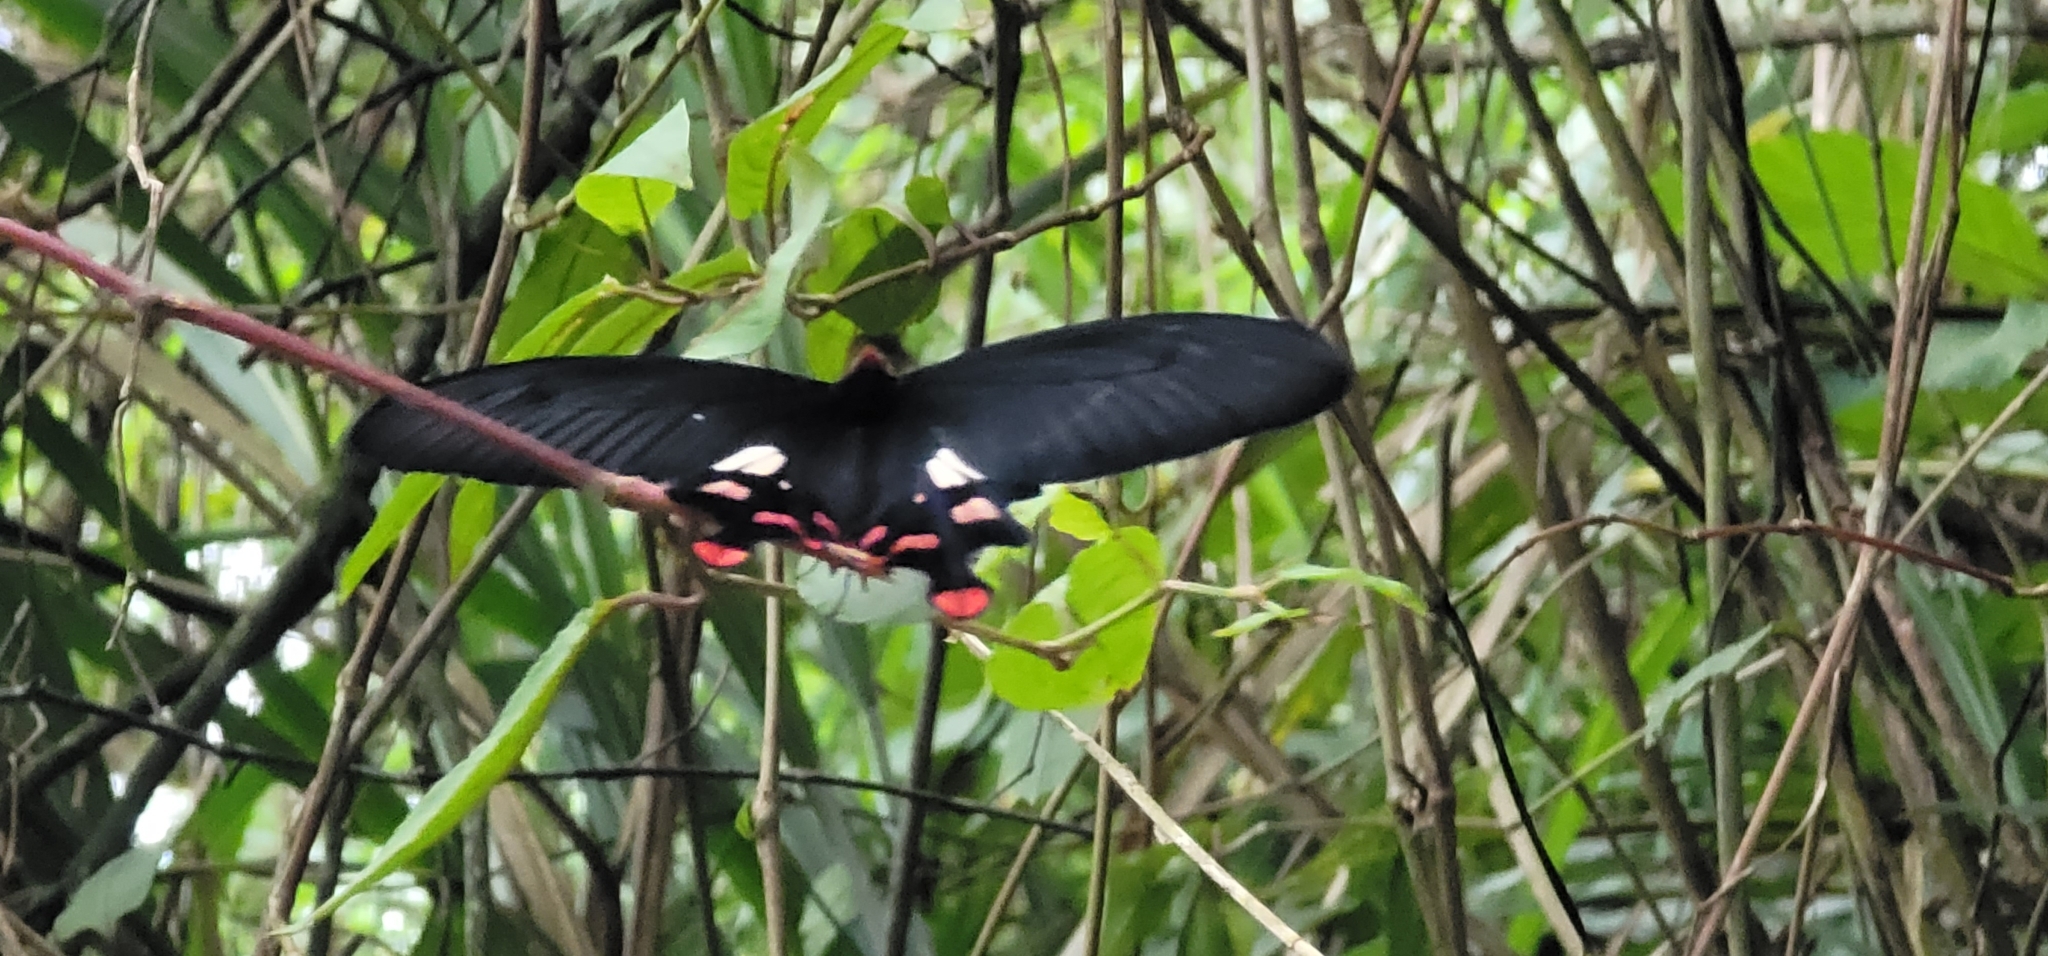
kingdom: Animalia
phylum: Arthropoda
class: Insecta
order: Lepidoptera
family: Papilionidae
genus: Byasa
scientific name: Byasa polyeuctes
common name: Common windmill
